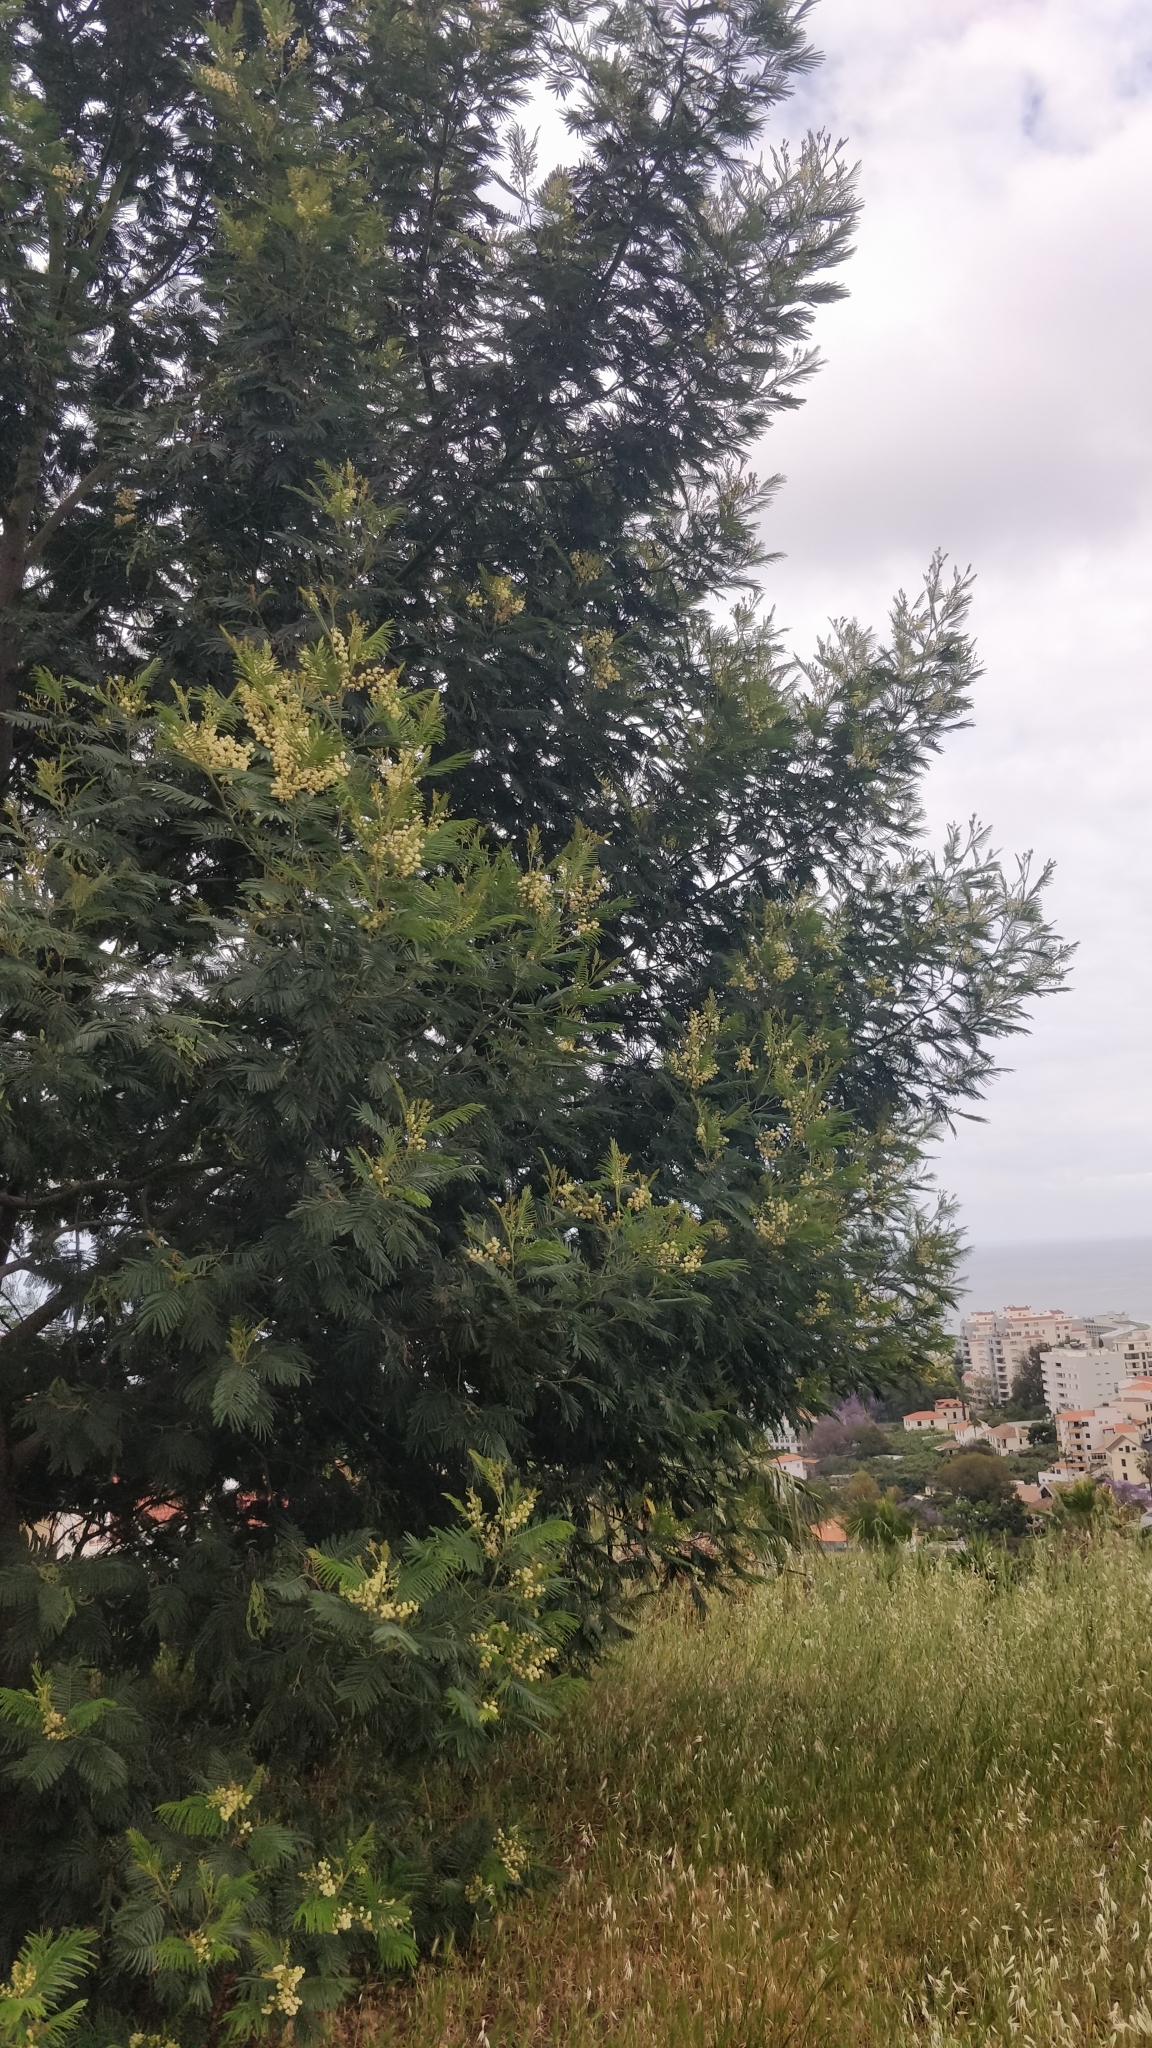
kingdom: Plantae
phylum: Tracheophyta
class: Magnoliopsida
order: Fabales
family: Fabaceae
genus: Acacia
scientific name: Acacia mearnsii
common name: Black wattle
